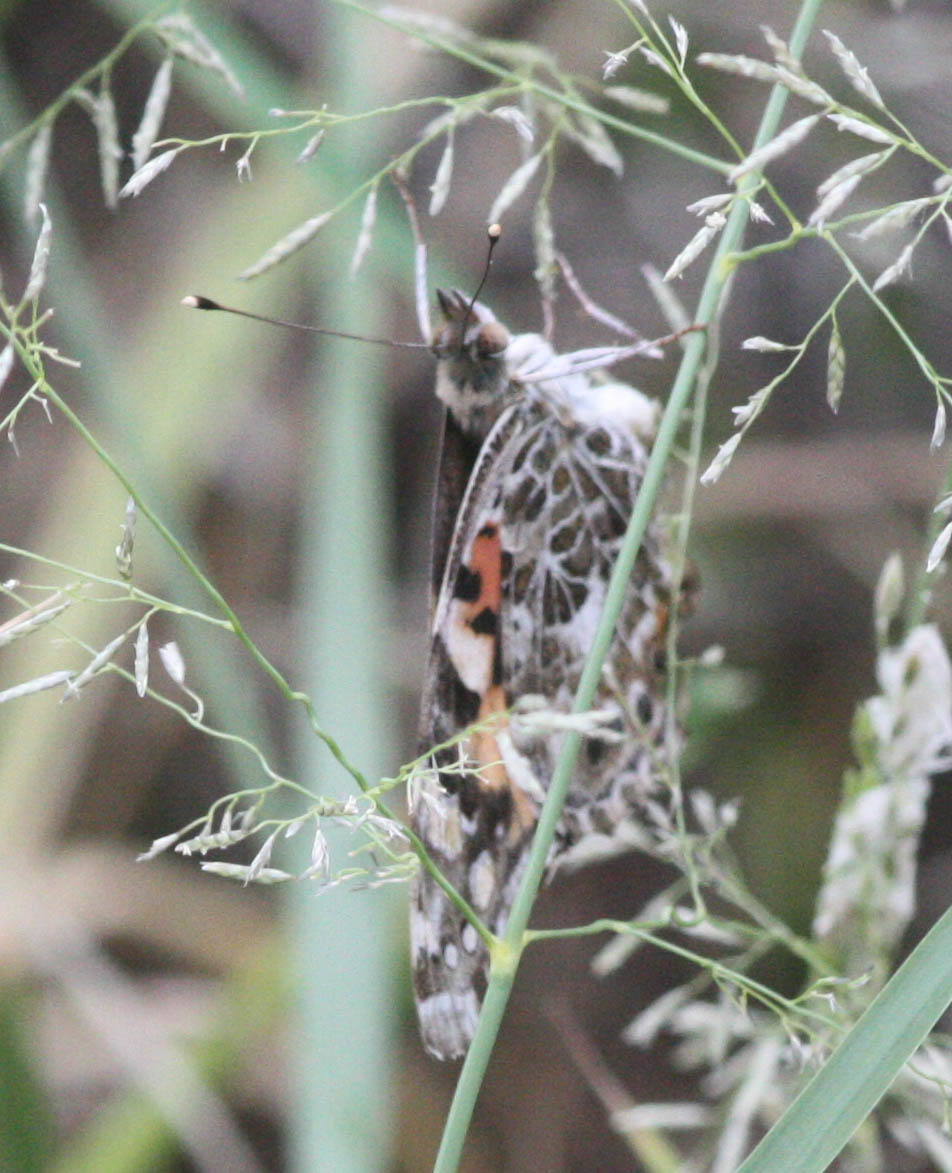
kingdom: Animalia
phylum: Arthropoda
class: Insecta
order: Lepidoptera
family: Nymphalidae
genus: Vanessa
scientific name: Vanessa cardui
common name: Painted lady
